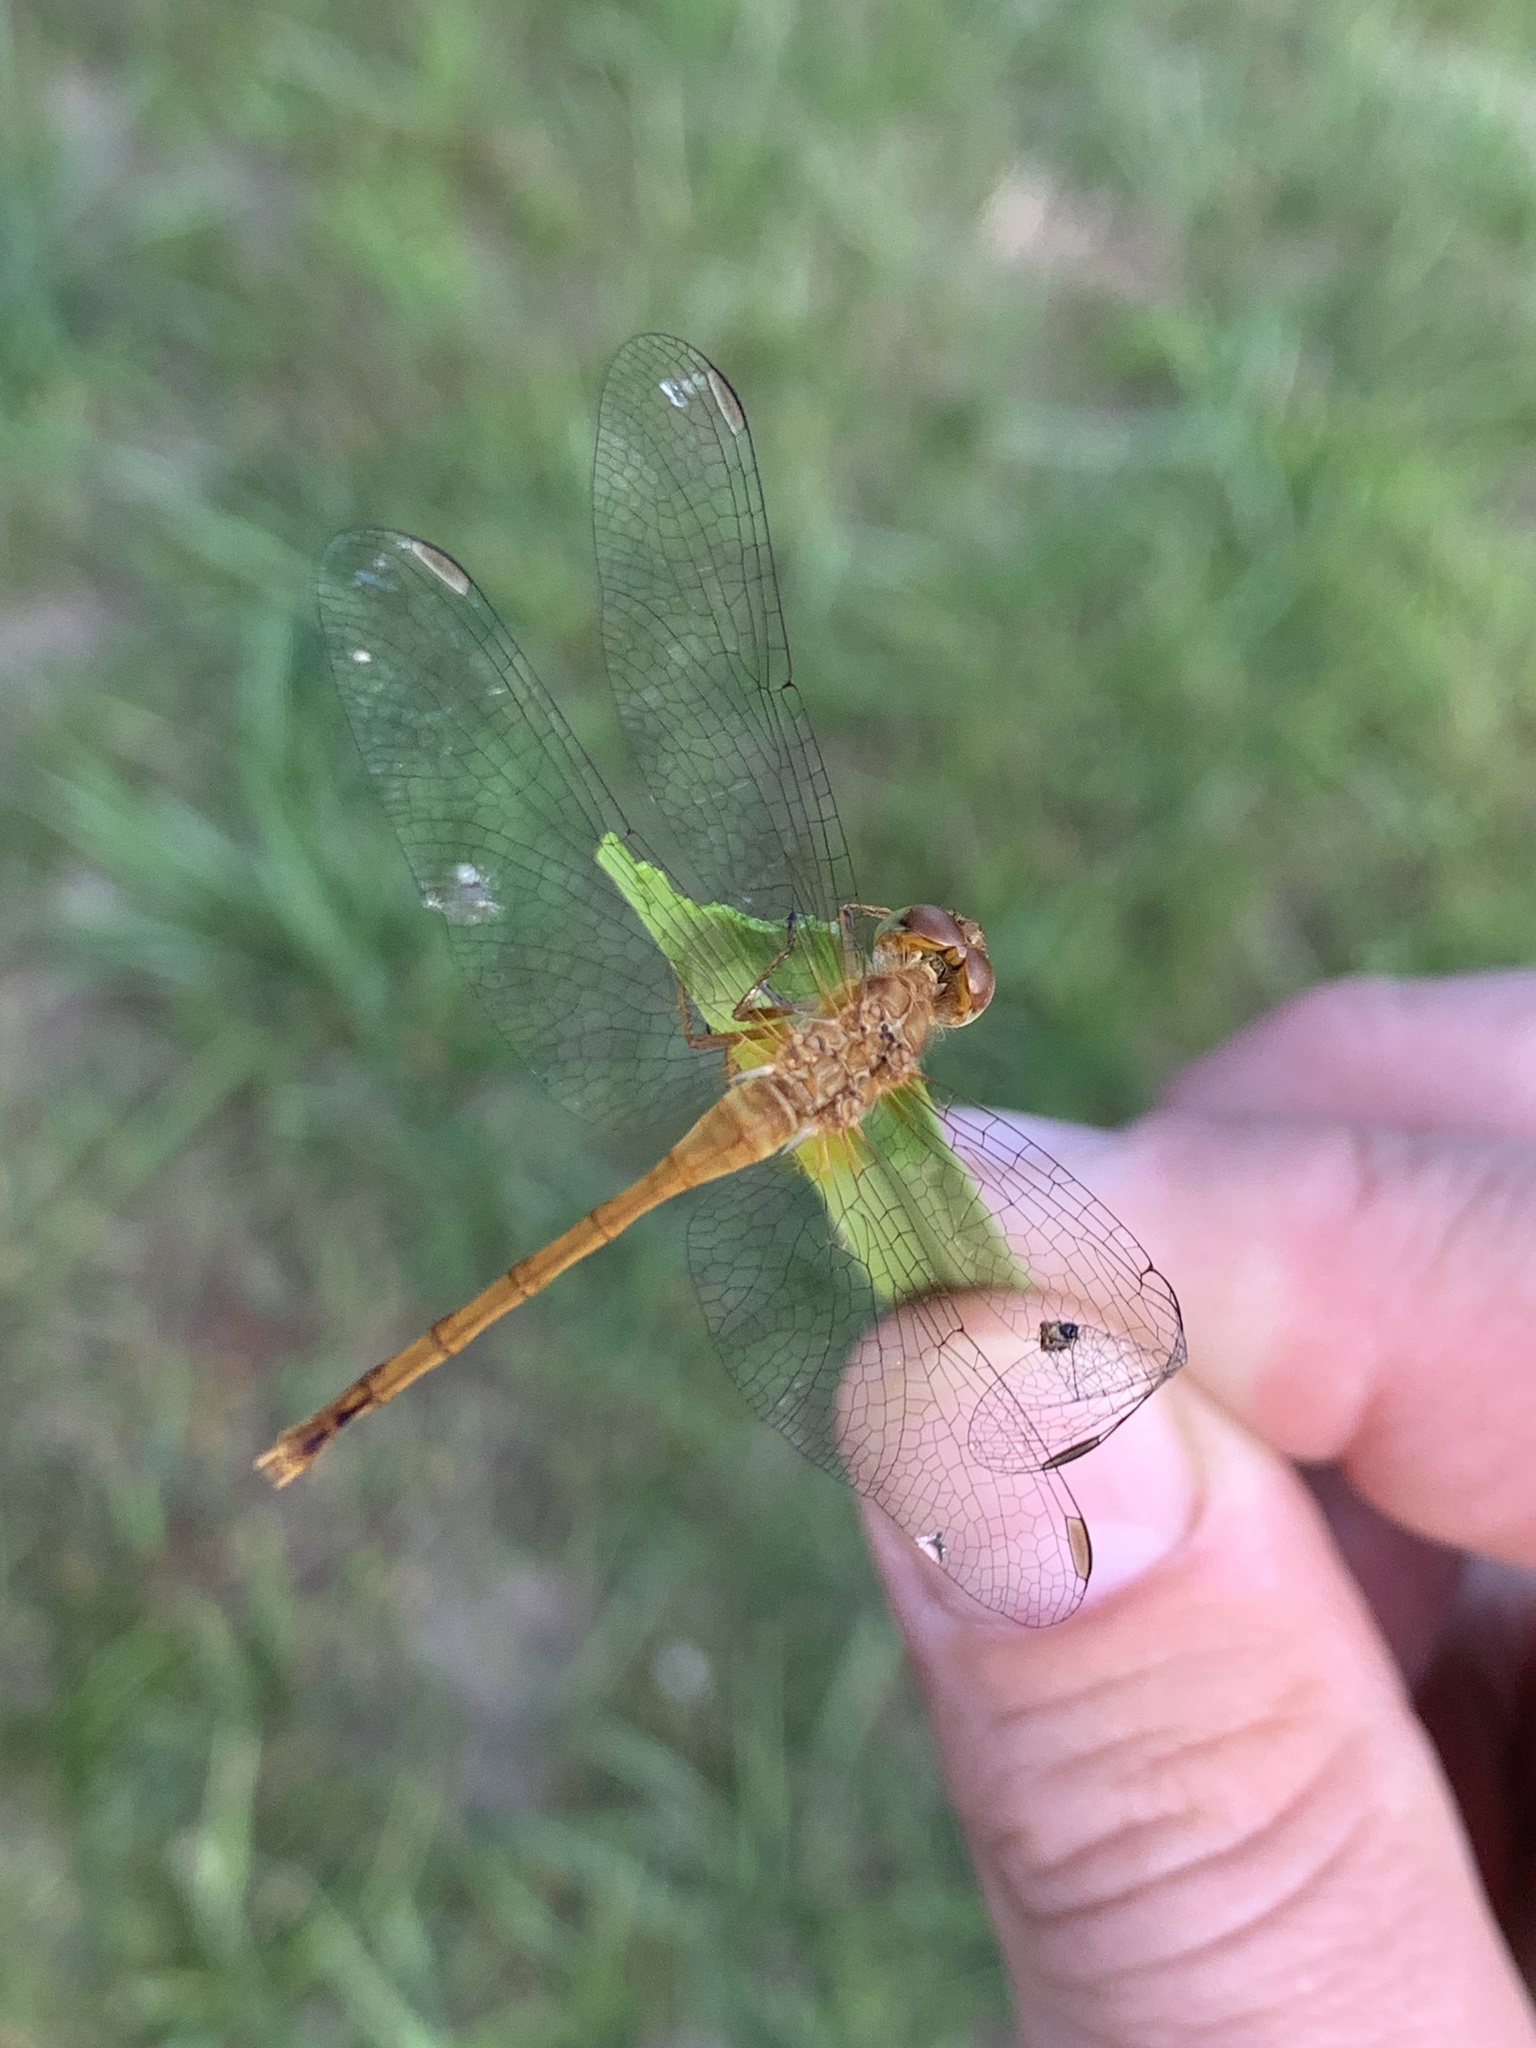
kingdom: Animalia
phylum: Arthropoda
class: Insecta
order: Odonata
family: Libellulidae
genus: Sympetrum
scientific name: Sympetrum vicinum
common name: Autumn meadowhawk
